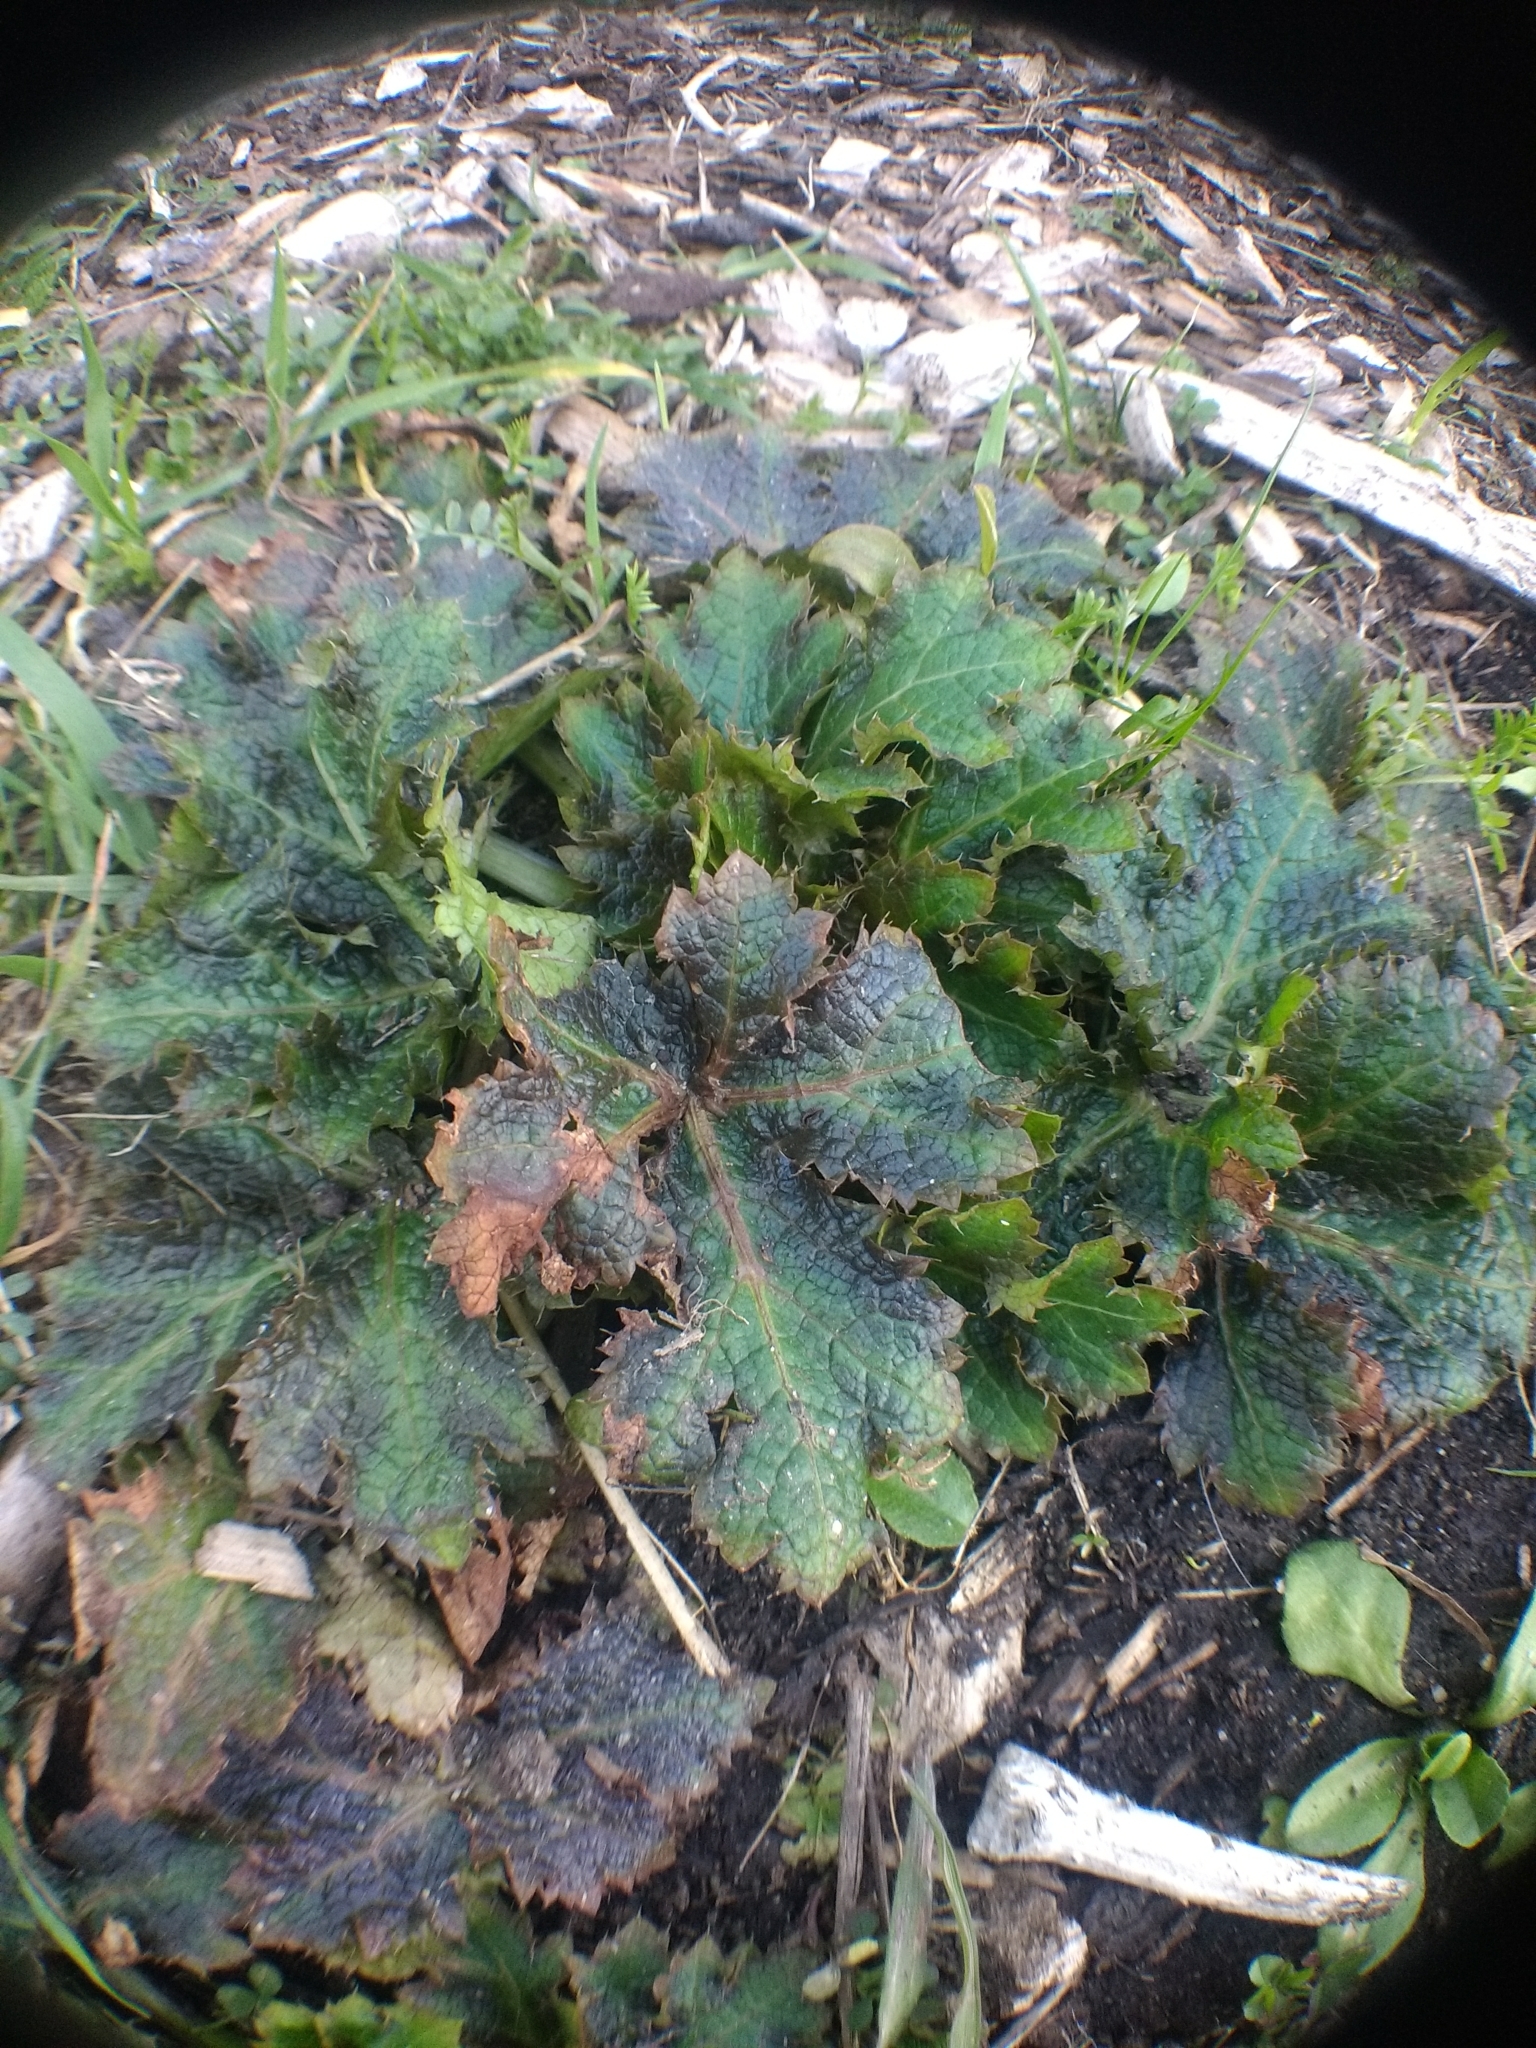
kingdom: Plantae
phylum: Tracheophyta
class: Magnoliopsida
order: Apiales
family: Apiaceae
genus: Sanicula
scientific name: Sanicula crassicaulis
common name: Western snakeroot
